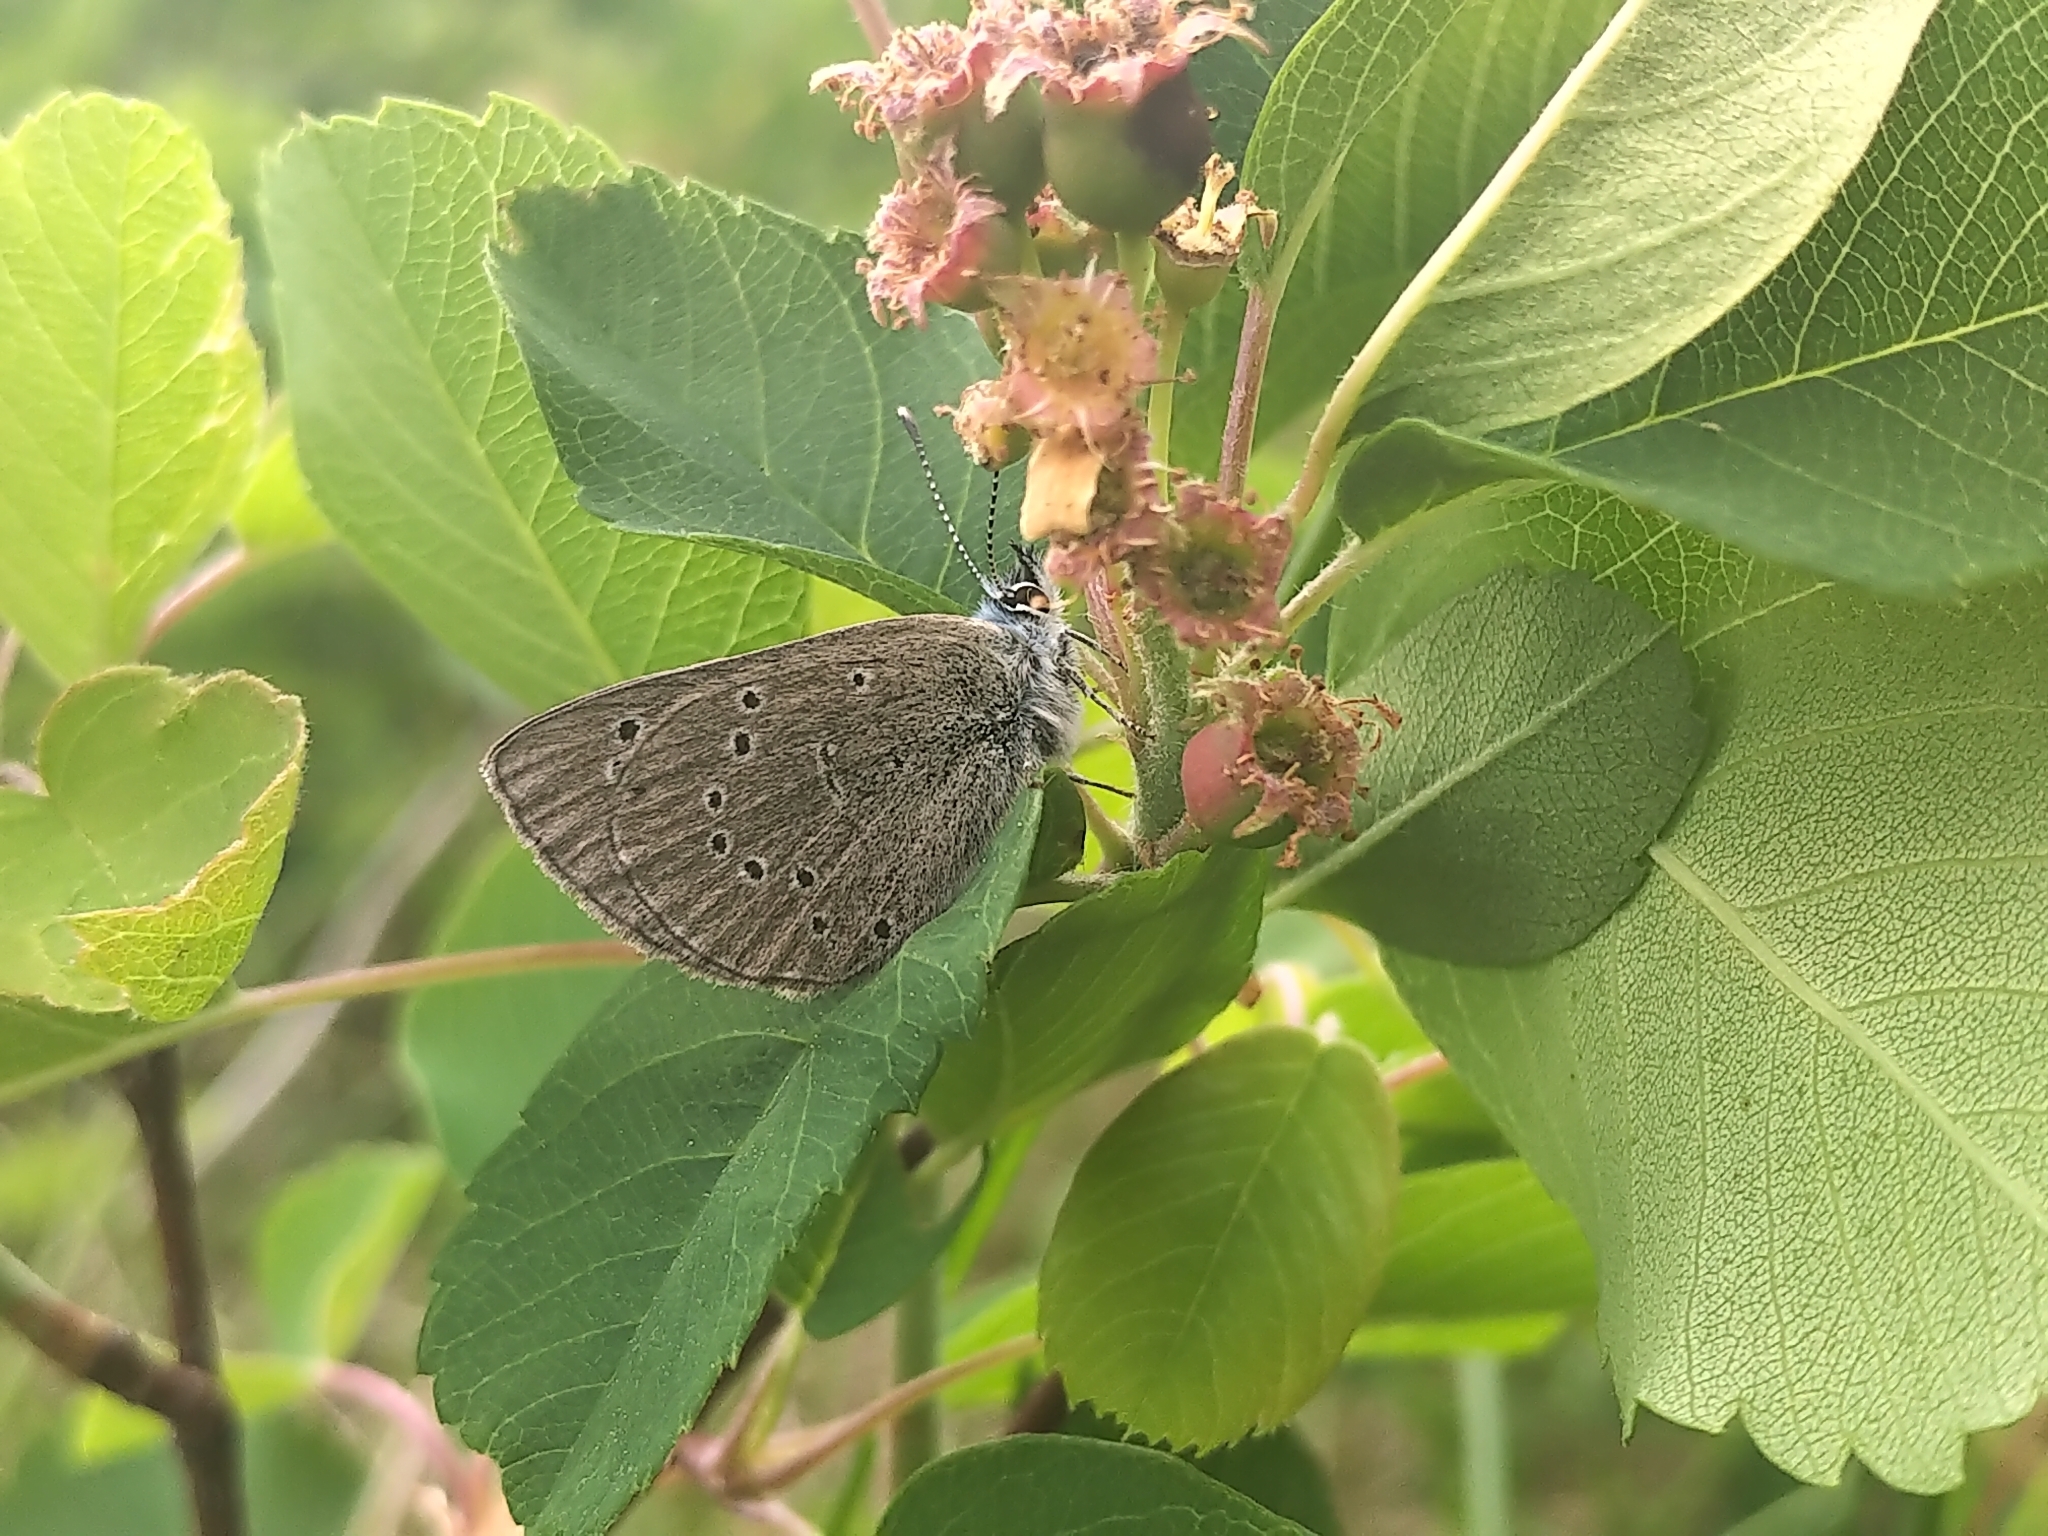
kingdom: Animalia
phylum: Arthropoda
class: Insecta
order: Lepidoptera
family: Lycaenidae
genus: Glaucopsyche
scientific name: Glaucopsyche lygdamus
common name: Silvery blue
